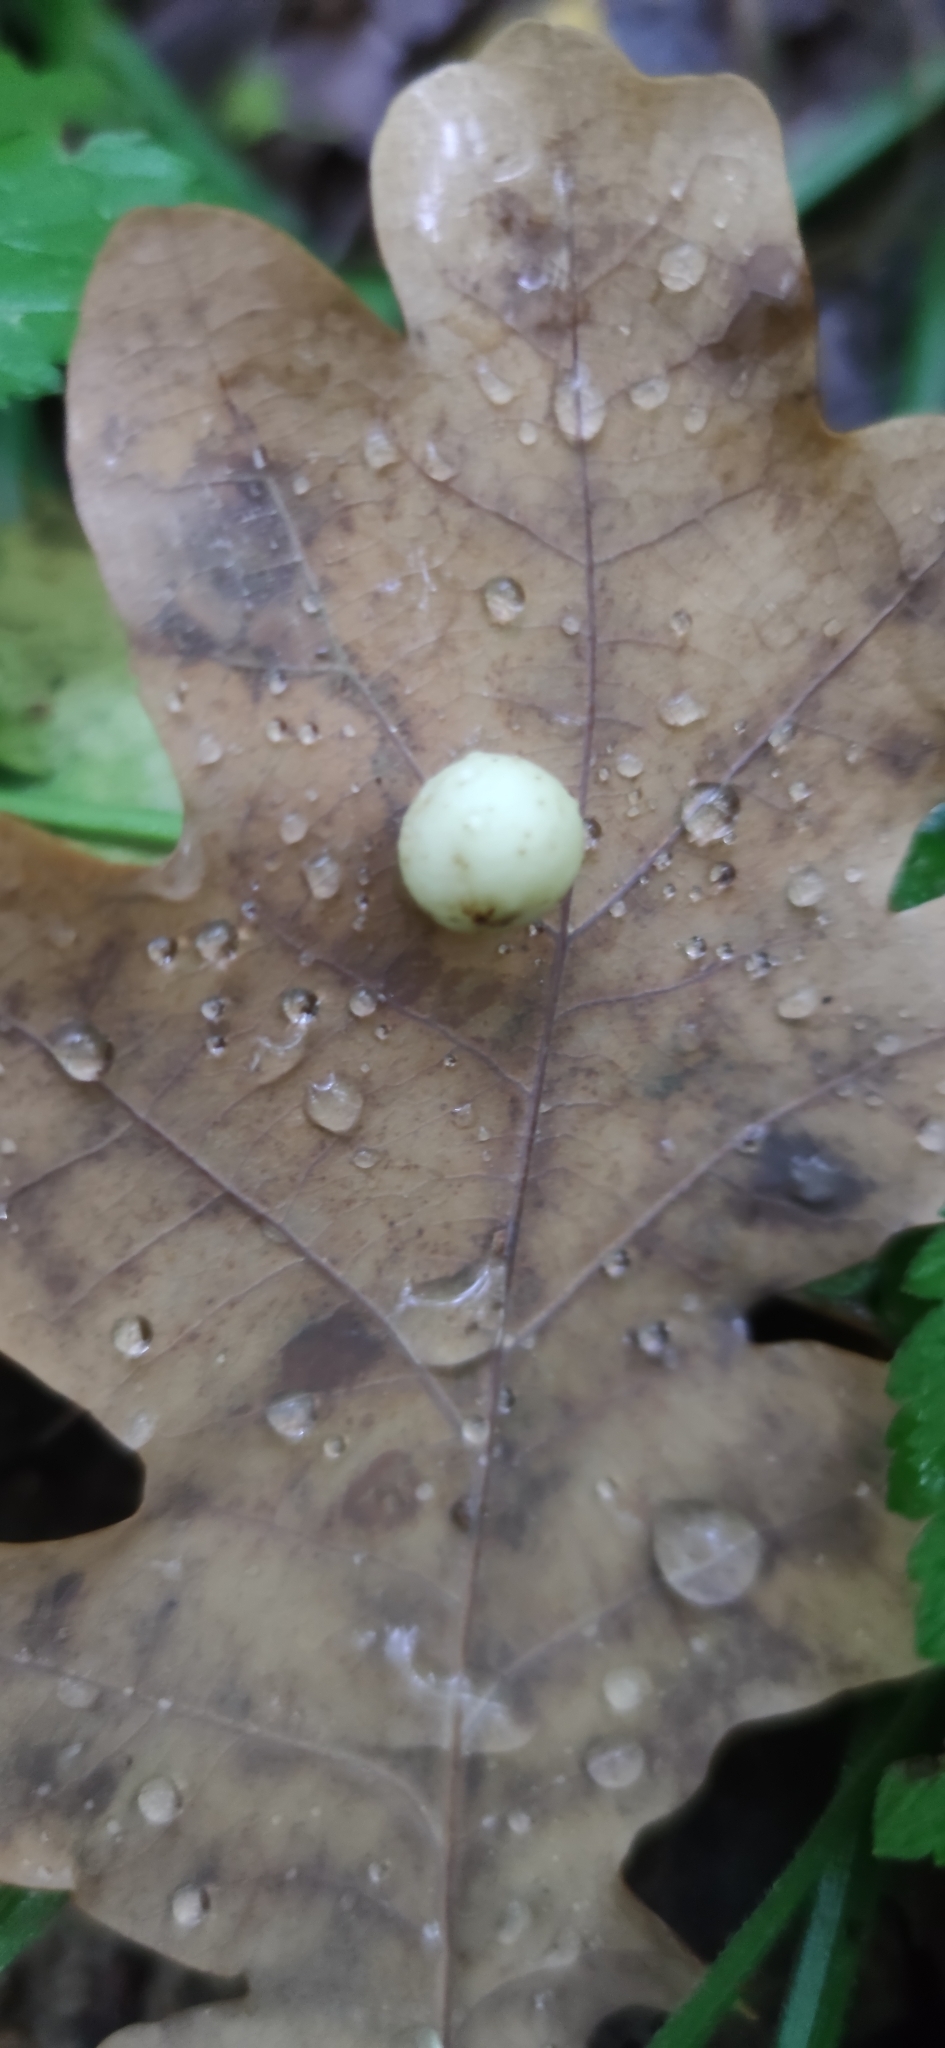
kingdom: Animalia
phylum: Arthropoda
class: Insecta
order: Hymenoptera
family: Cynipidae
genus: Cynips
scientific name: Cynips quercusfolii
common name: Cherry gall
